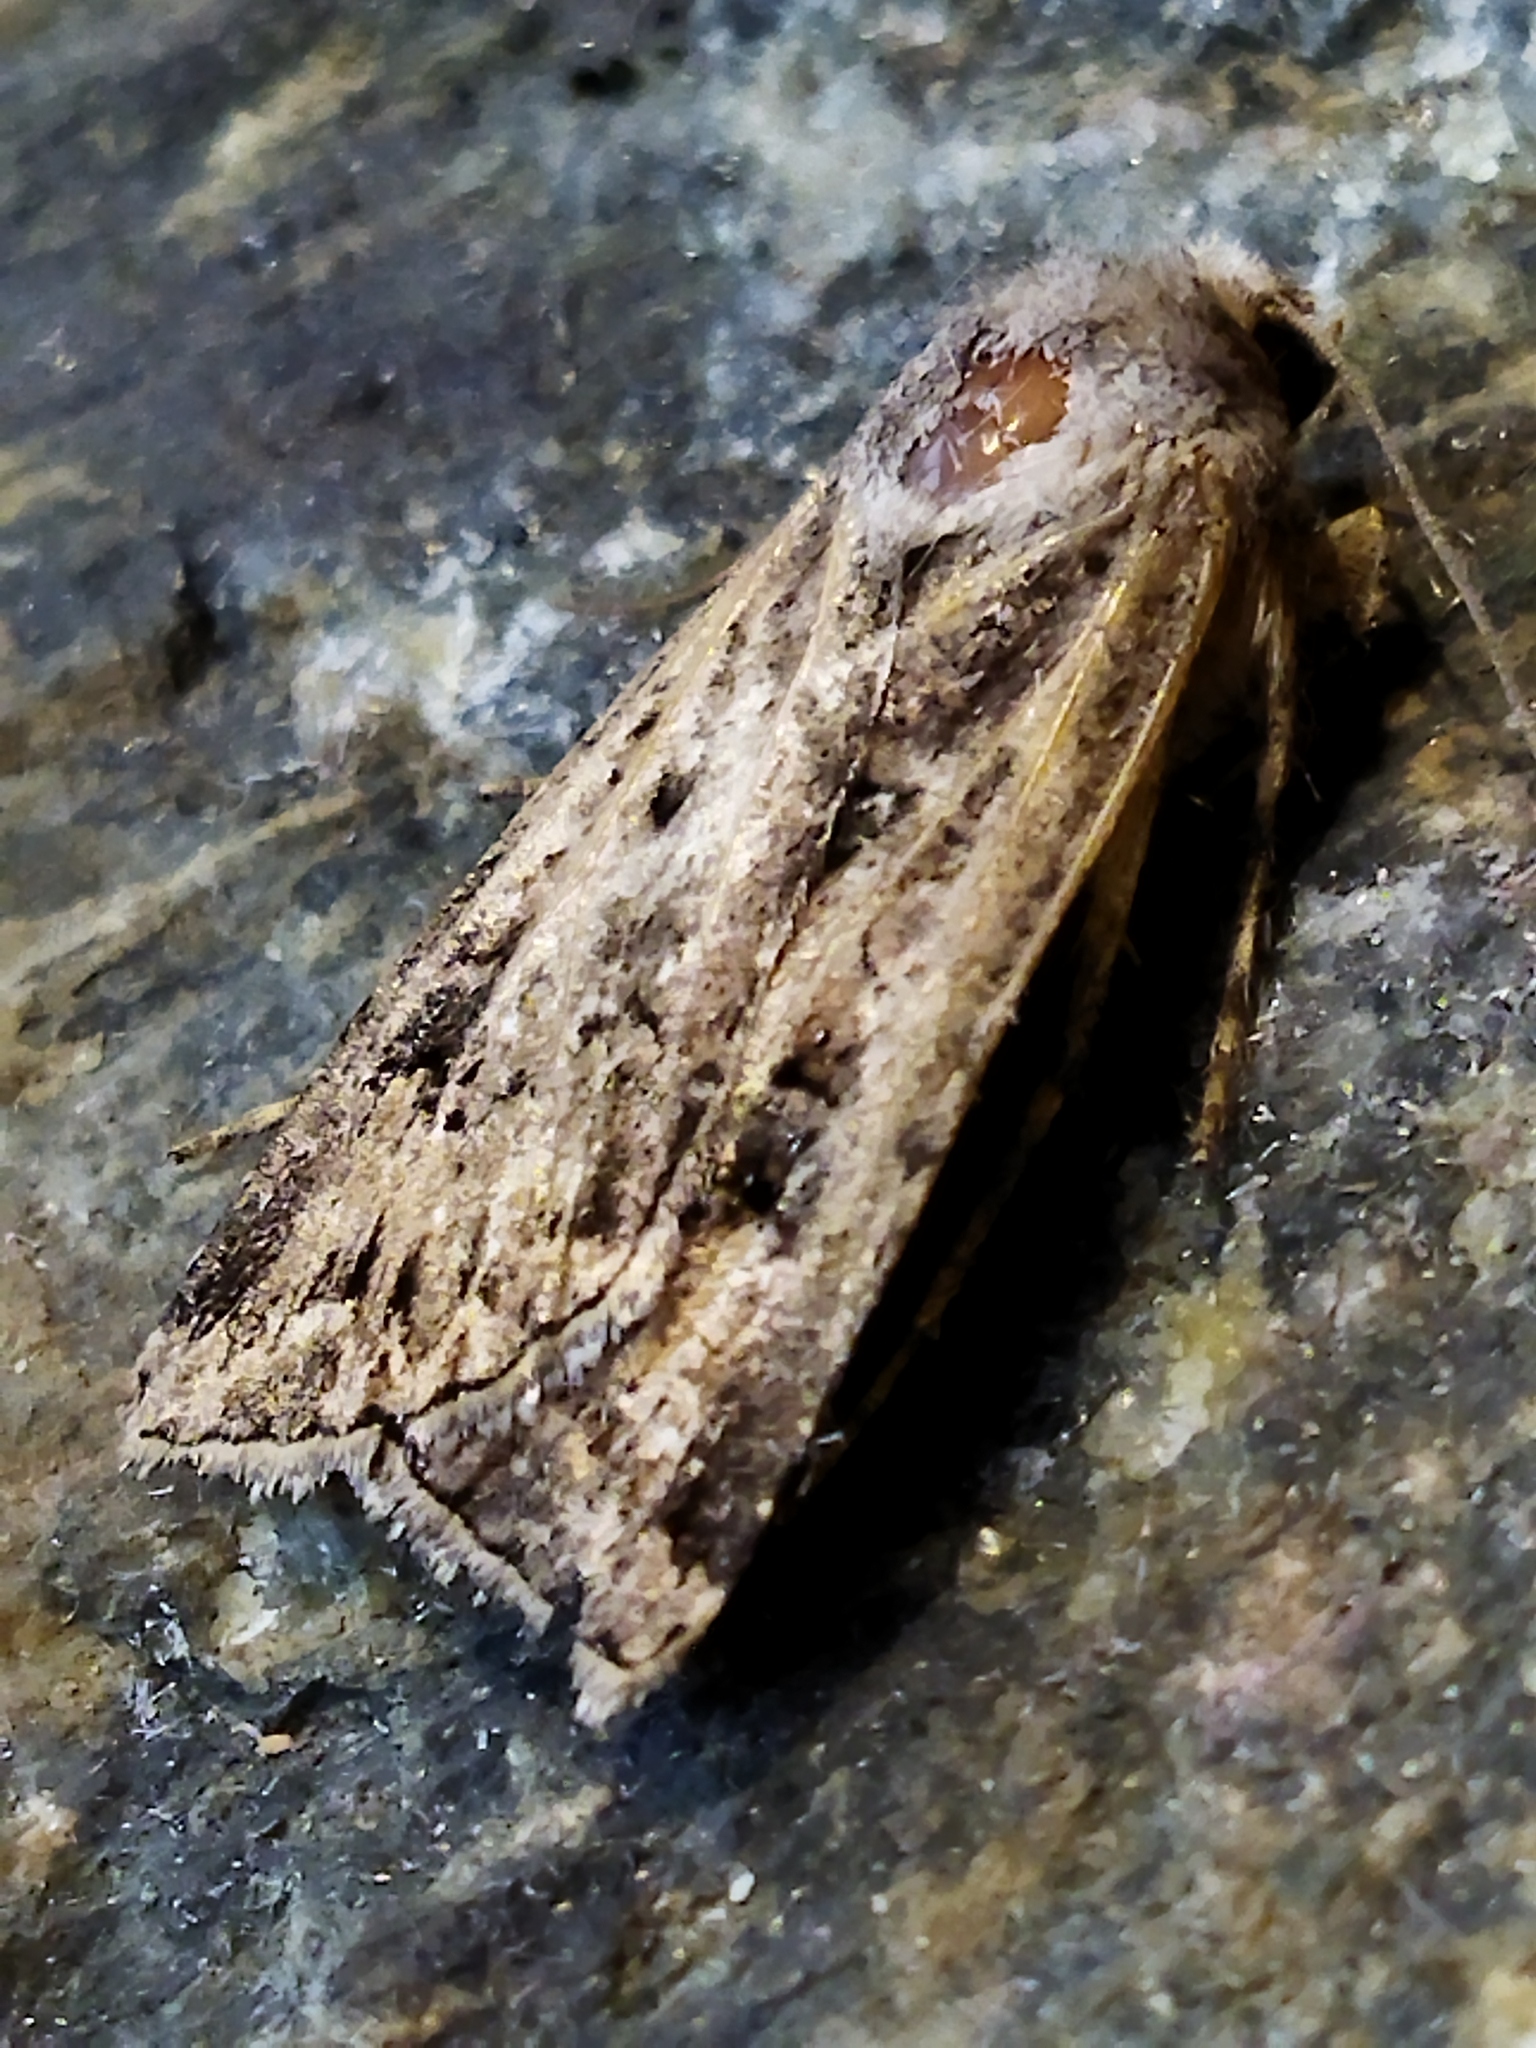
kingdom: Animalia
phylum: Arthropoda
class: Insecta
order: Lepidoptera
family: Noctuidae
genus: Agrotis
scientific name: Agrotis bigramma
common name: Great dart
